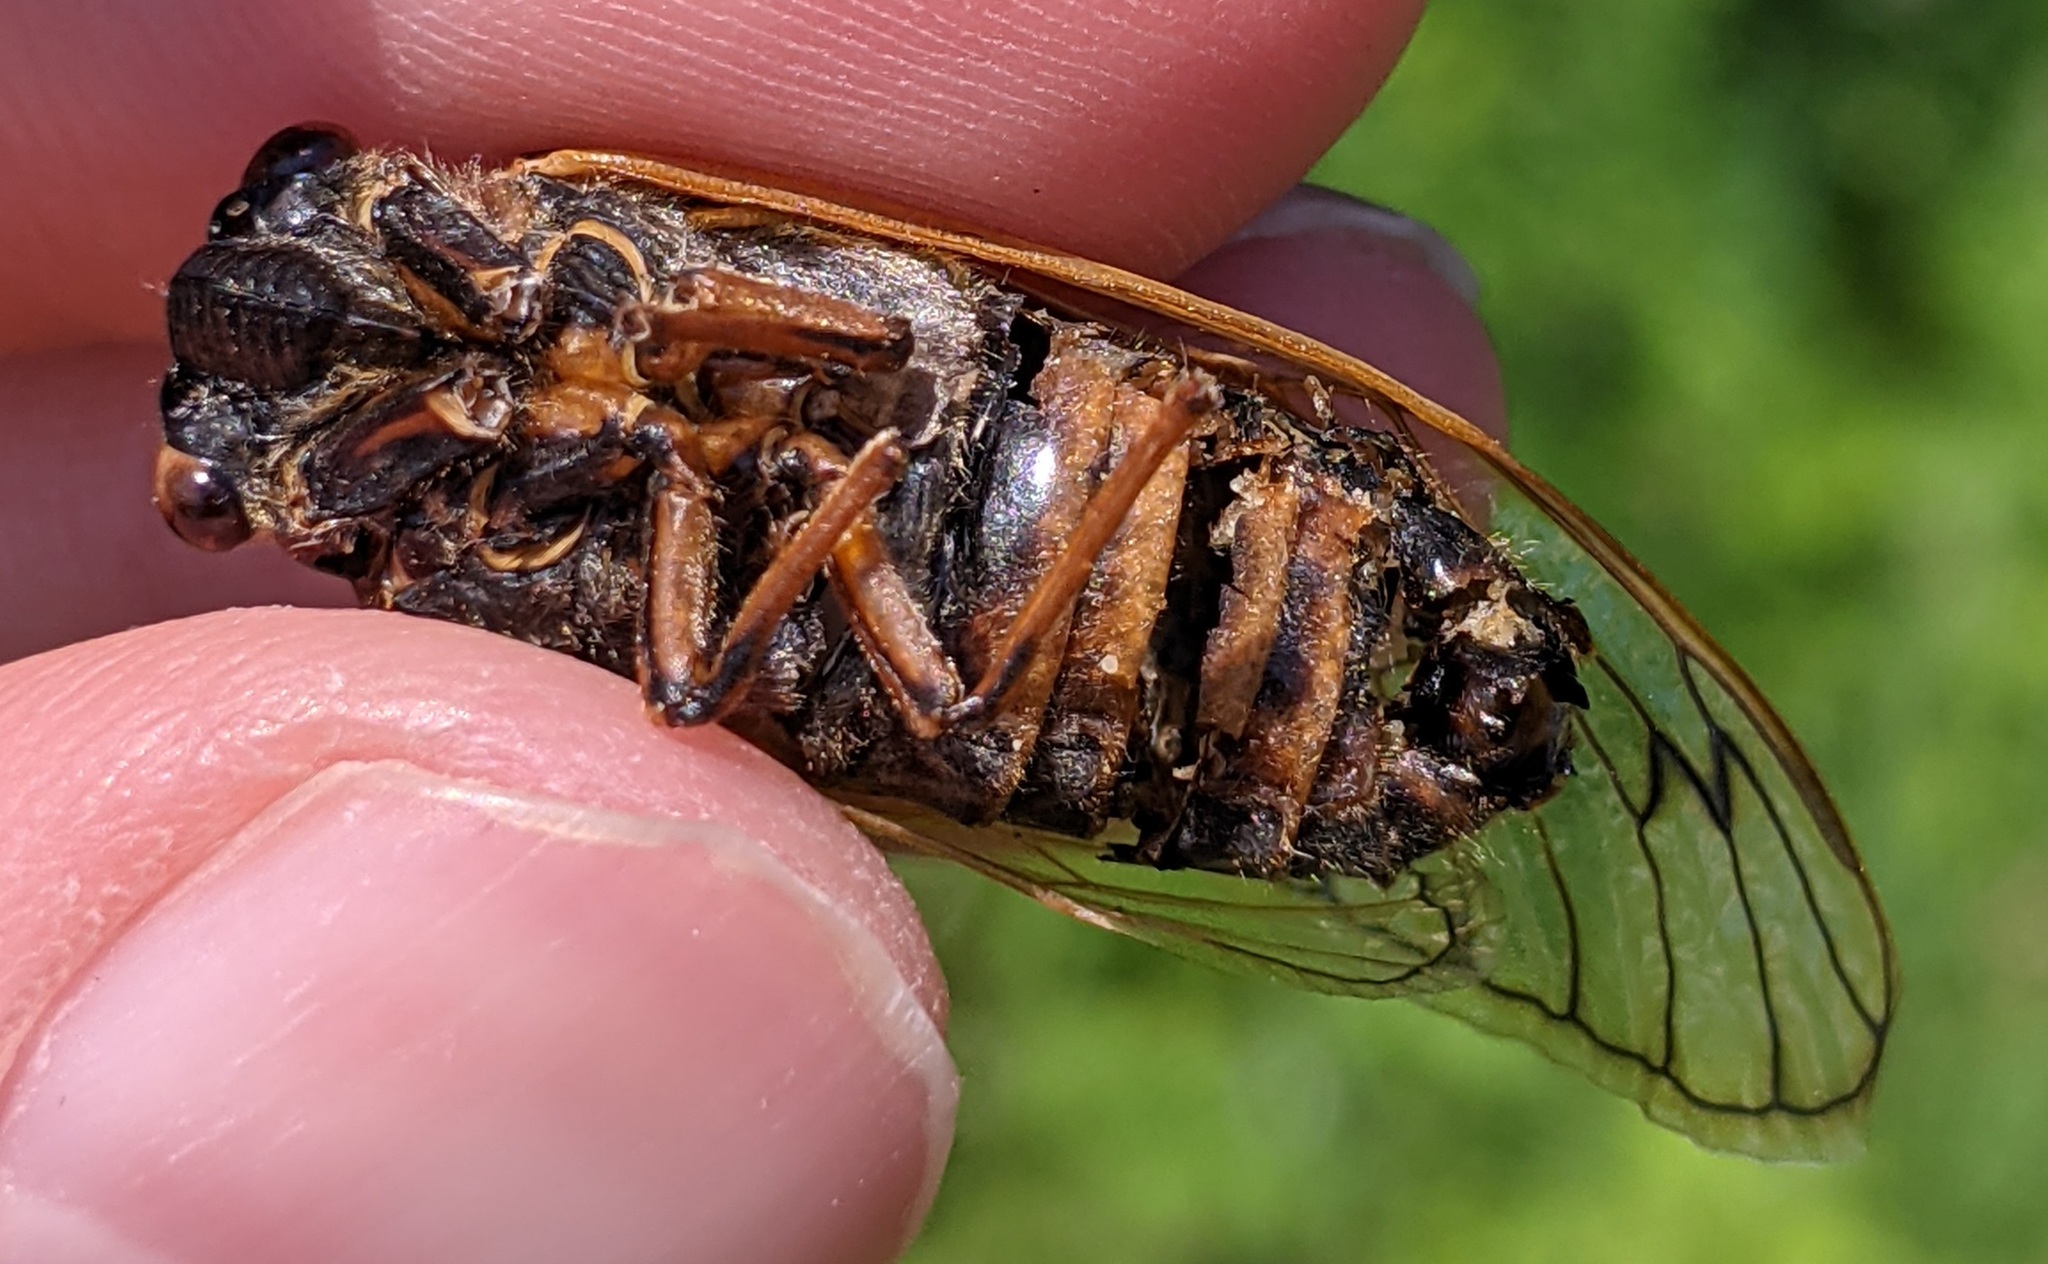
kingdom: Animalia
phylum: Arthropoda
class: Insecta
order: Hemiptera
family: Cicadidae
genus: Magicicada
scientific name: Magicicada septendecim
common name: Periodical cicada
